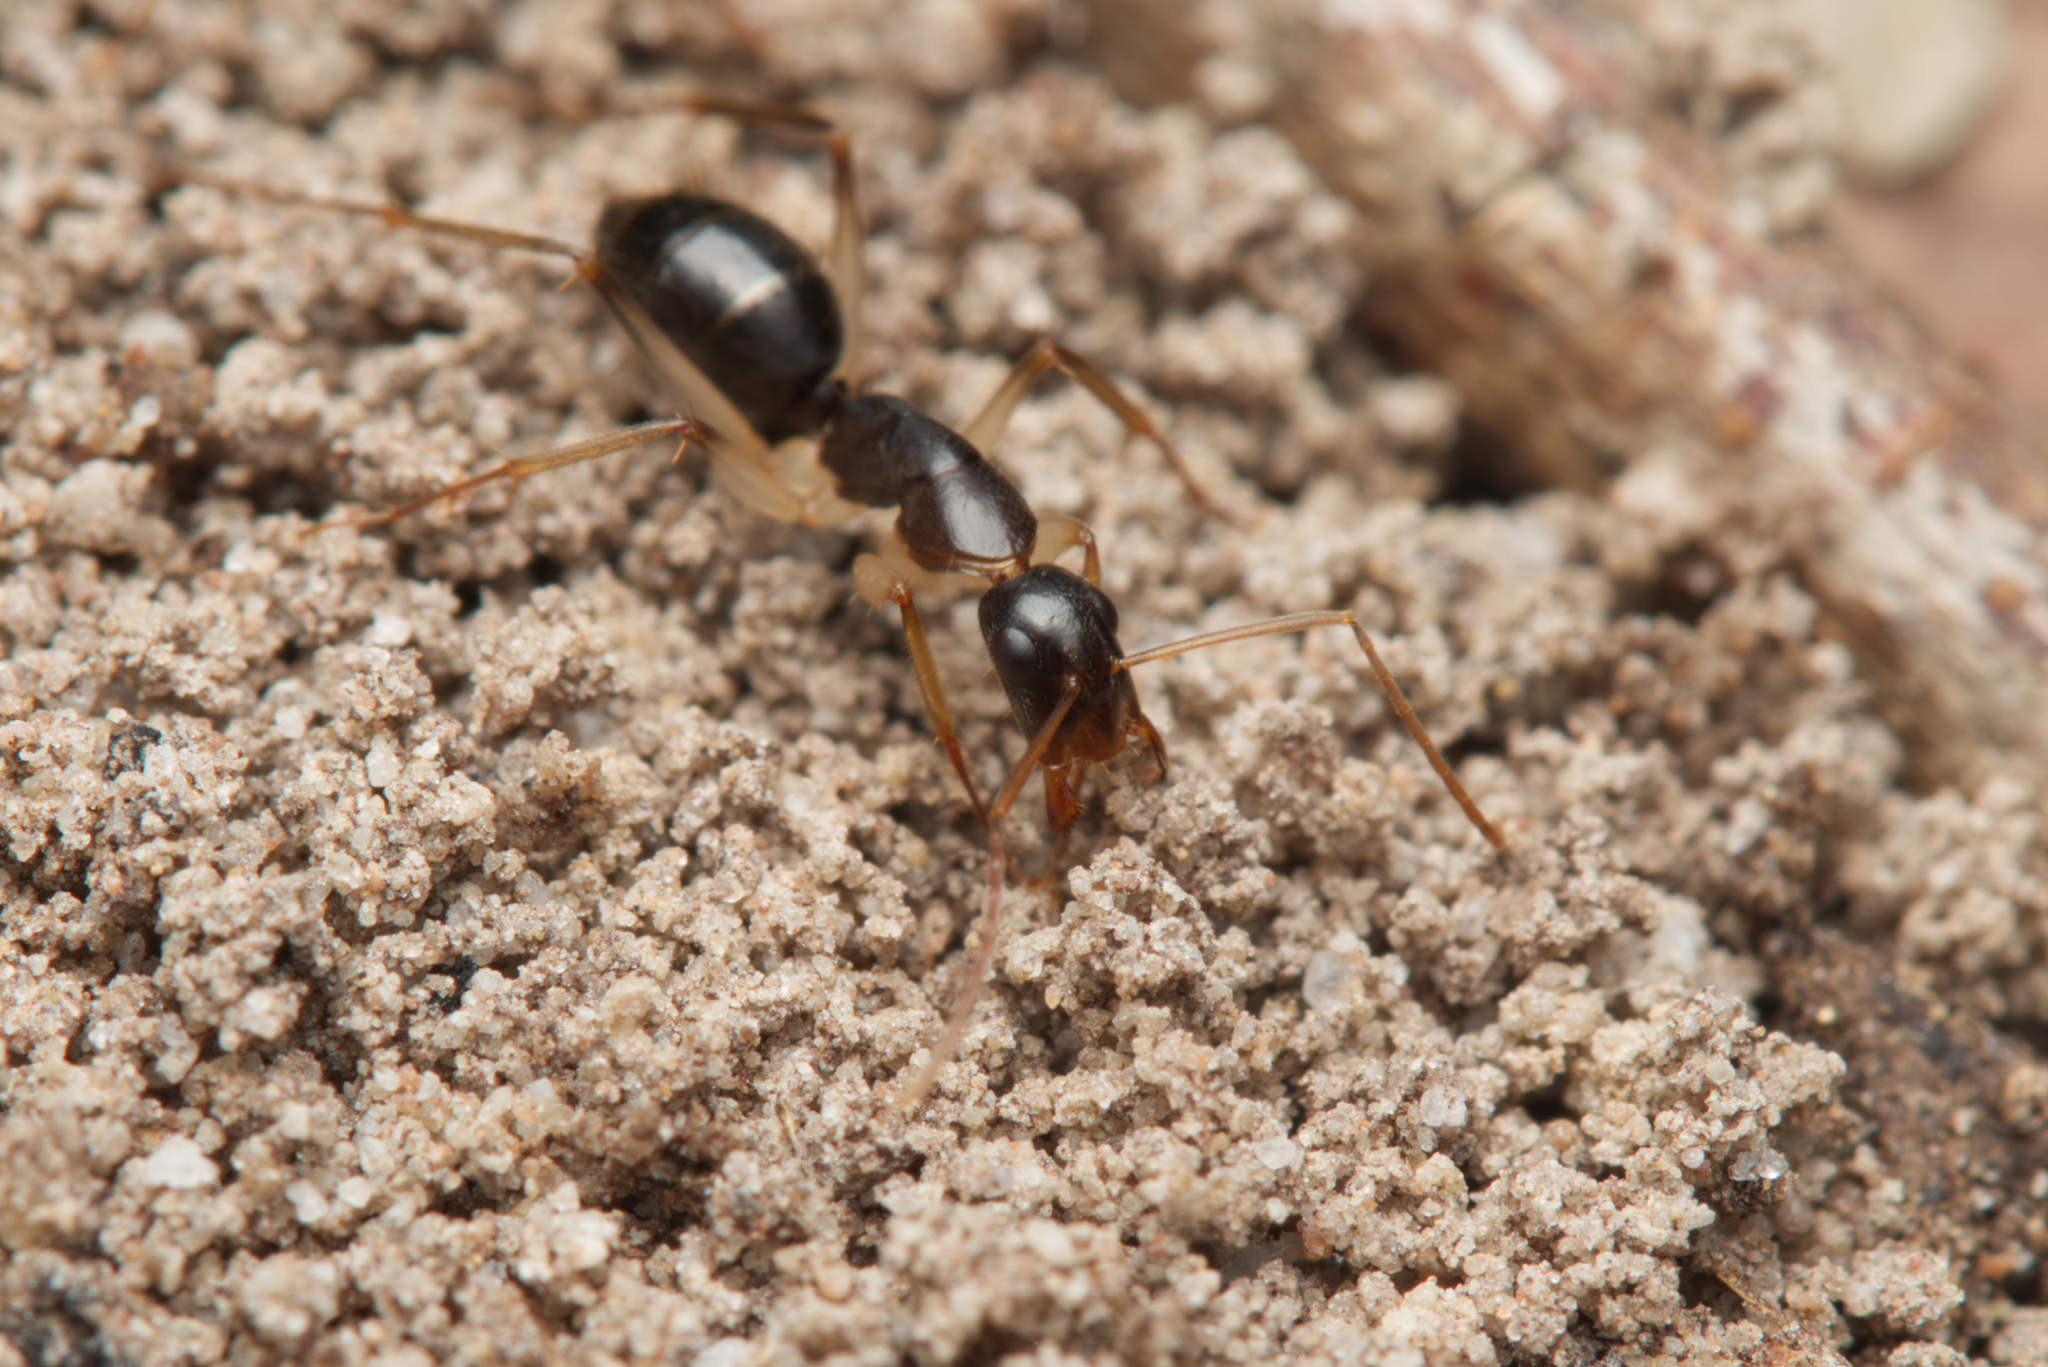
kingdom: Animalia
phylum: Arthropoda
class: Insecta
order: Hymenoptera
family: Formicidae
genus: Camponotus
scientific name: Camponotus elegans
